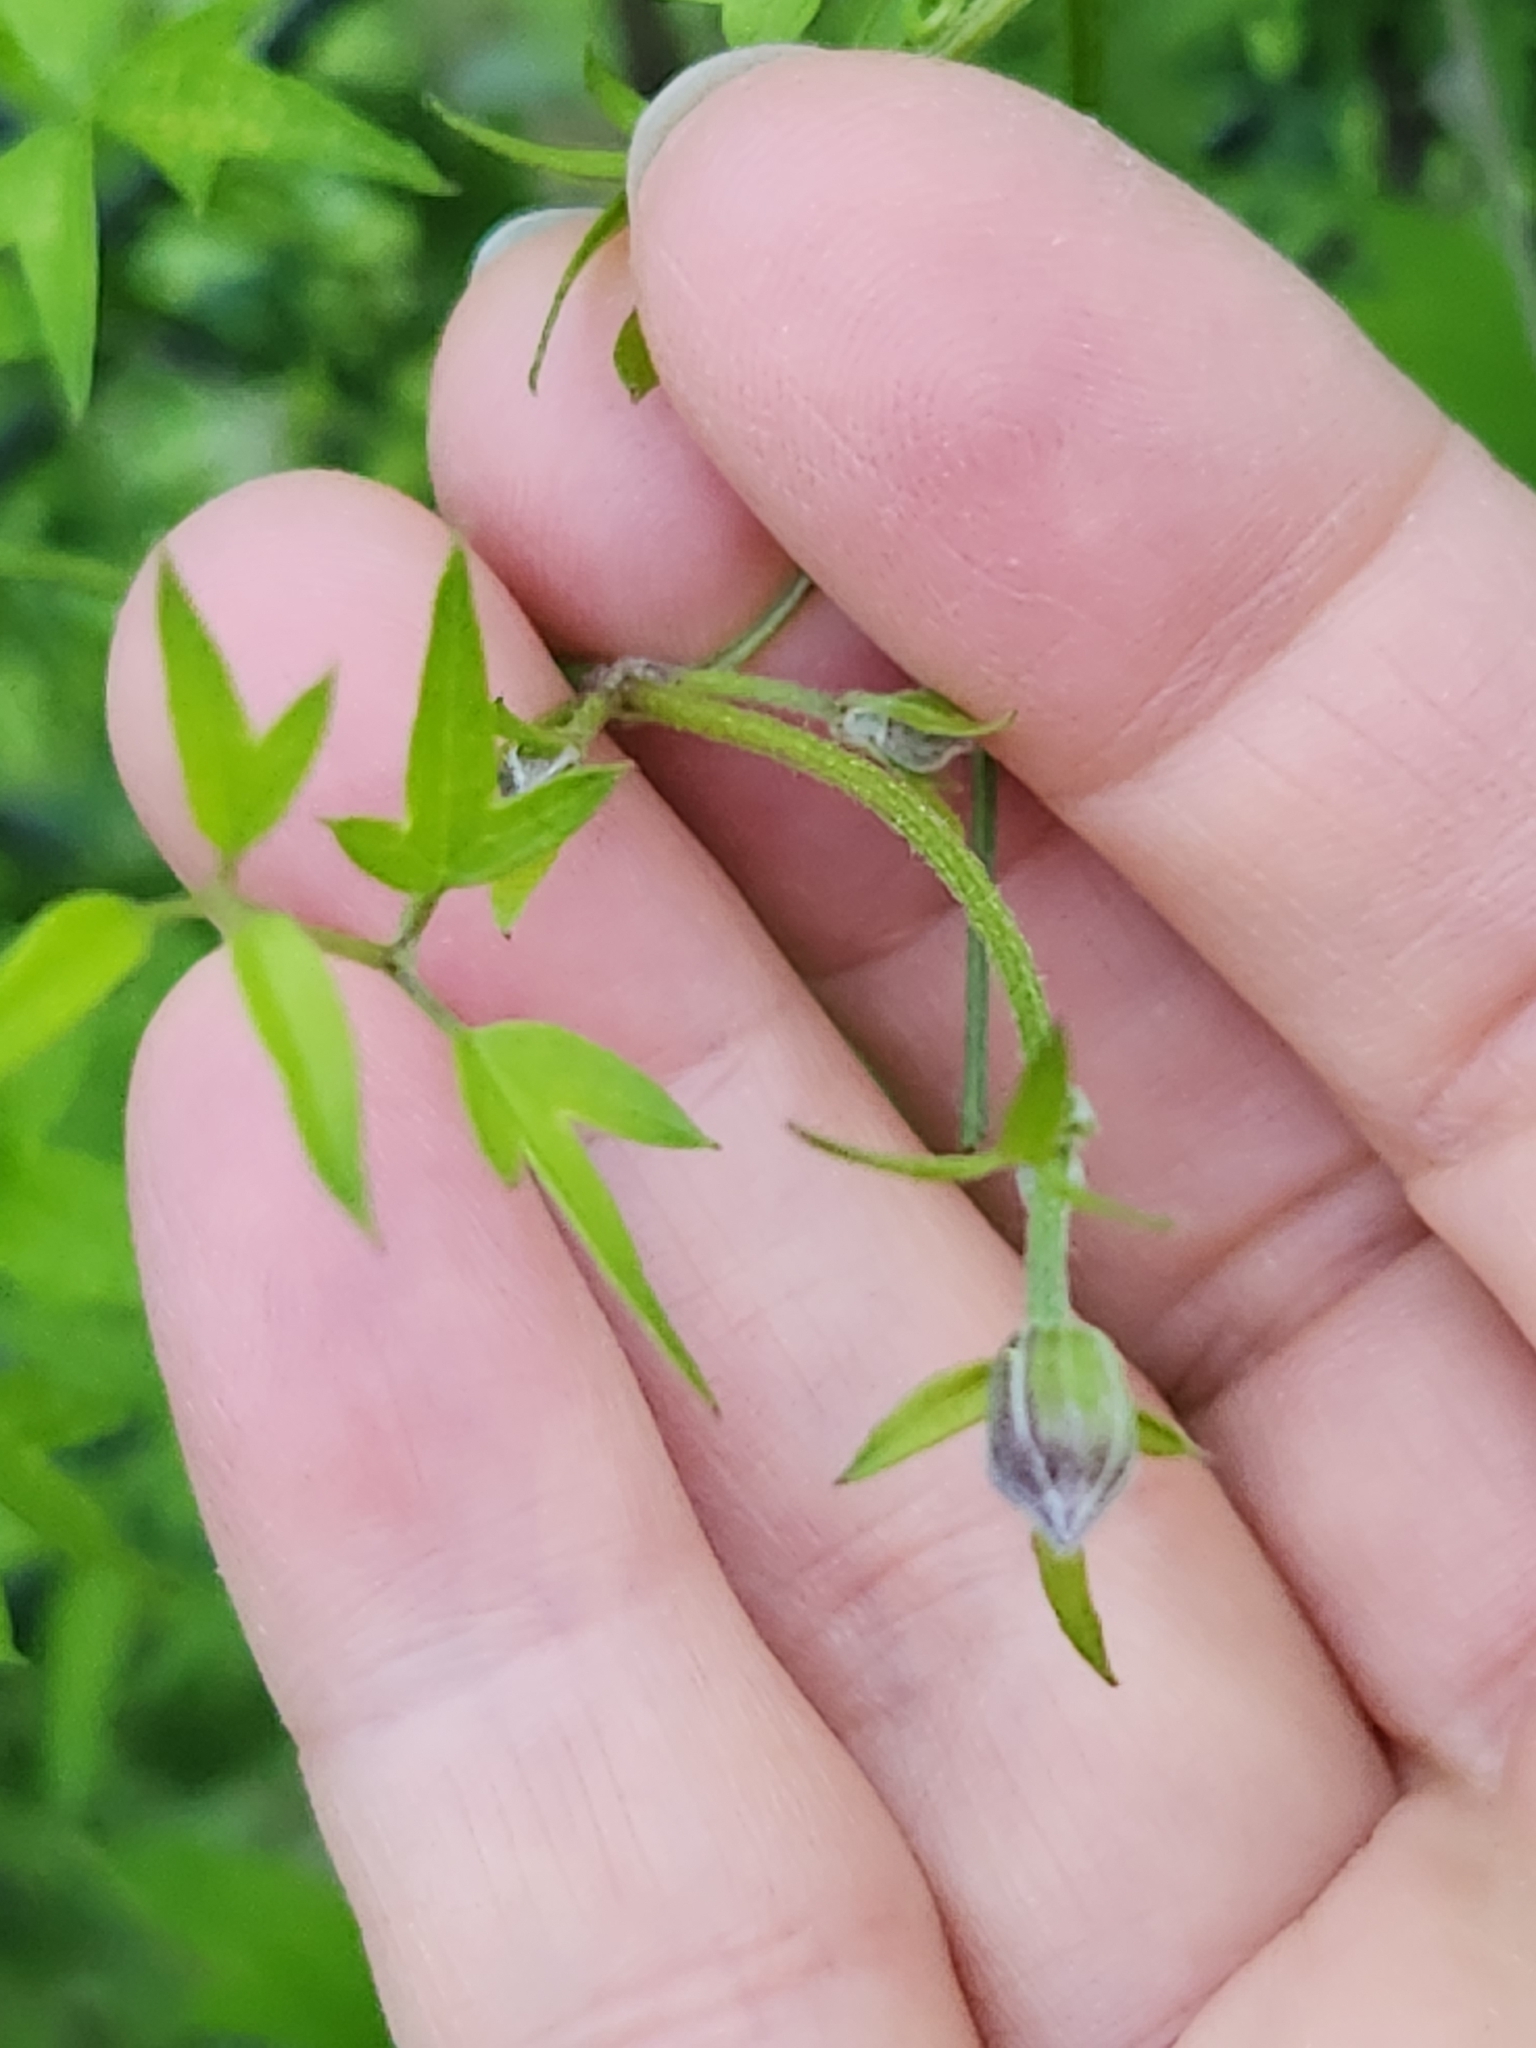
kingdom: Plantae
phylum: Tracheophyta
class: Magnoliopsida
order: Ranunculales
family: Ranunculaceae
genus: Clematis
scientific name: Clematis drummondii
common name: Texas virgin's bower
